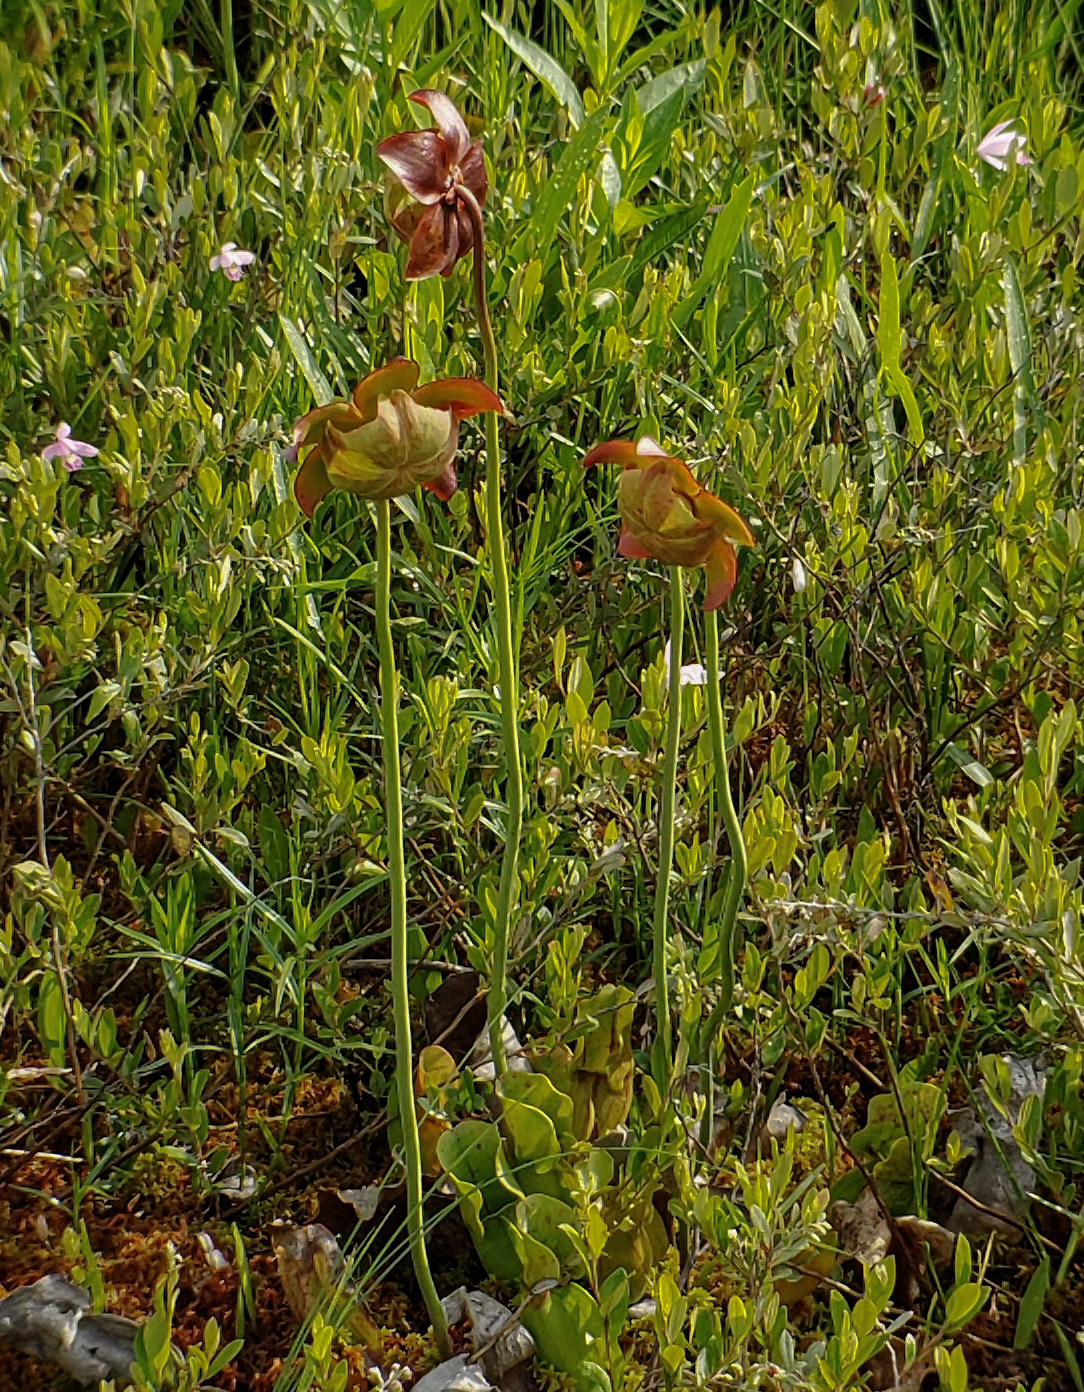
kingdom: Plantae
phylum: Tracheophyta
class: Magnoliopsida
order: Ericales
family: Sarraceniaceae
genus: Sarracenia
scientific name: Sarracenia purpurea
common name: Pitcherplant
